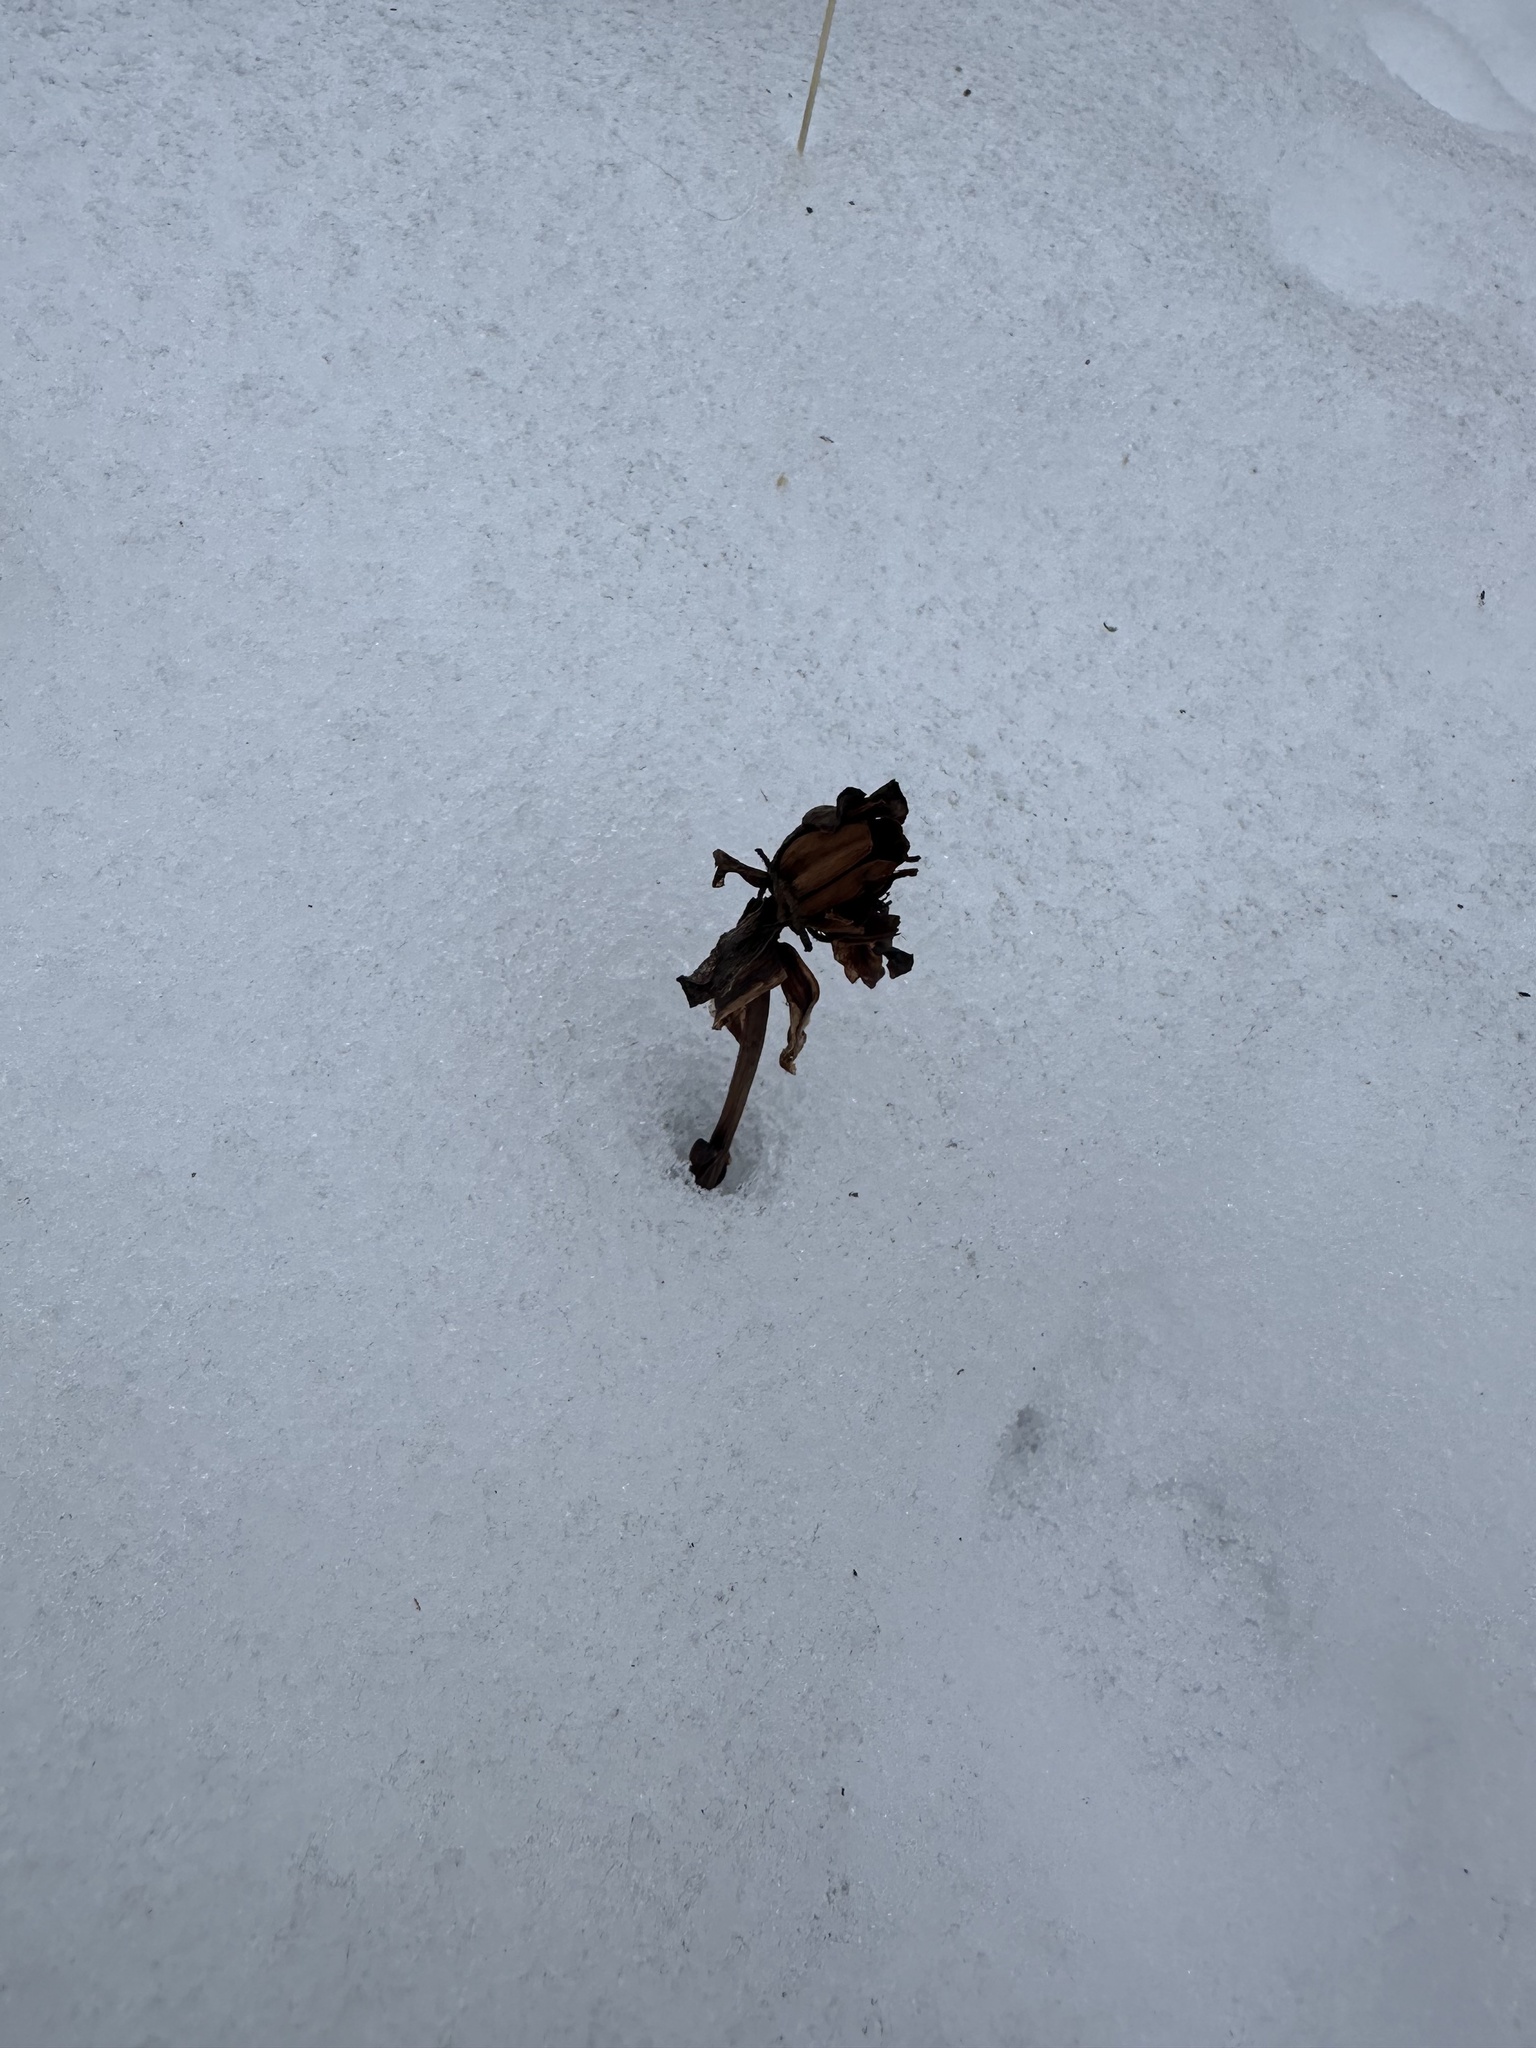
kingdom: Plantae
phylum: Tracheophyta
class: Magnoliopsida
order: Ericales
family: Ericaceae
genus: Monotropa
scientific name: Monotropa uniflora
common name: Convulsion root
